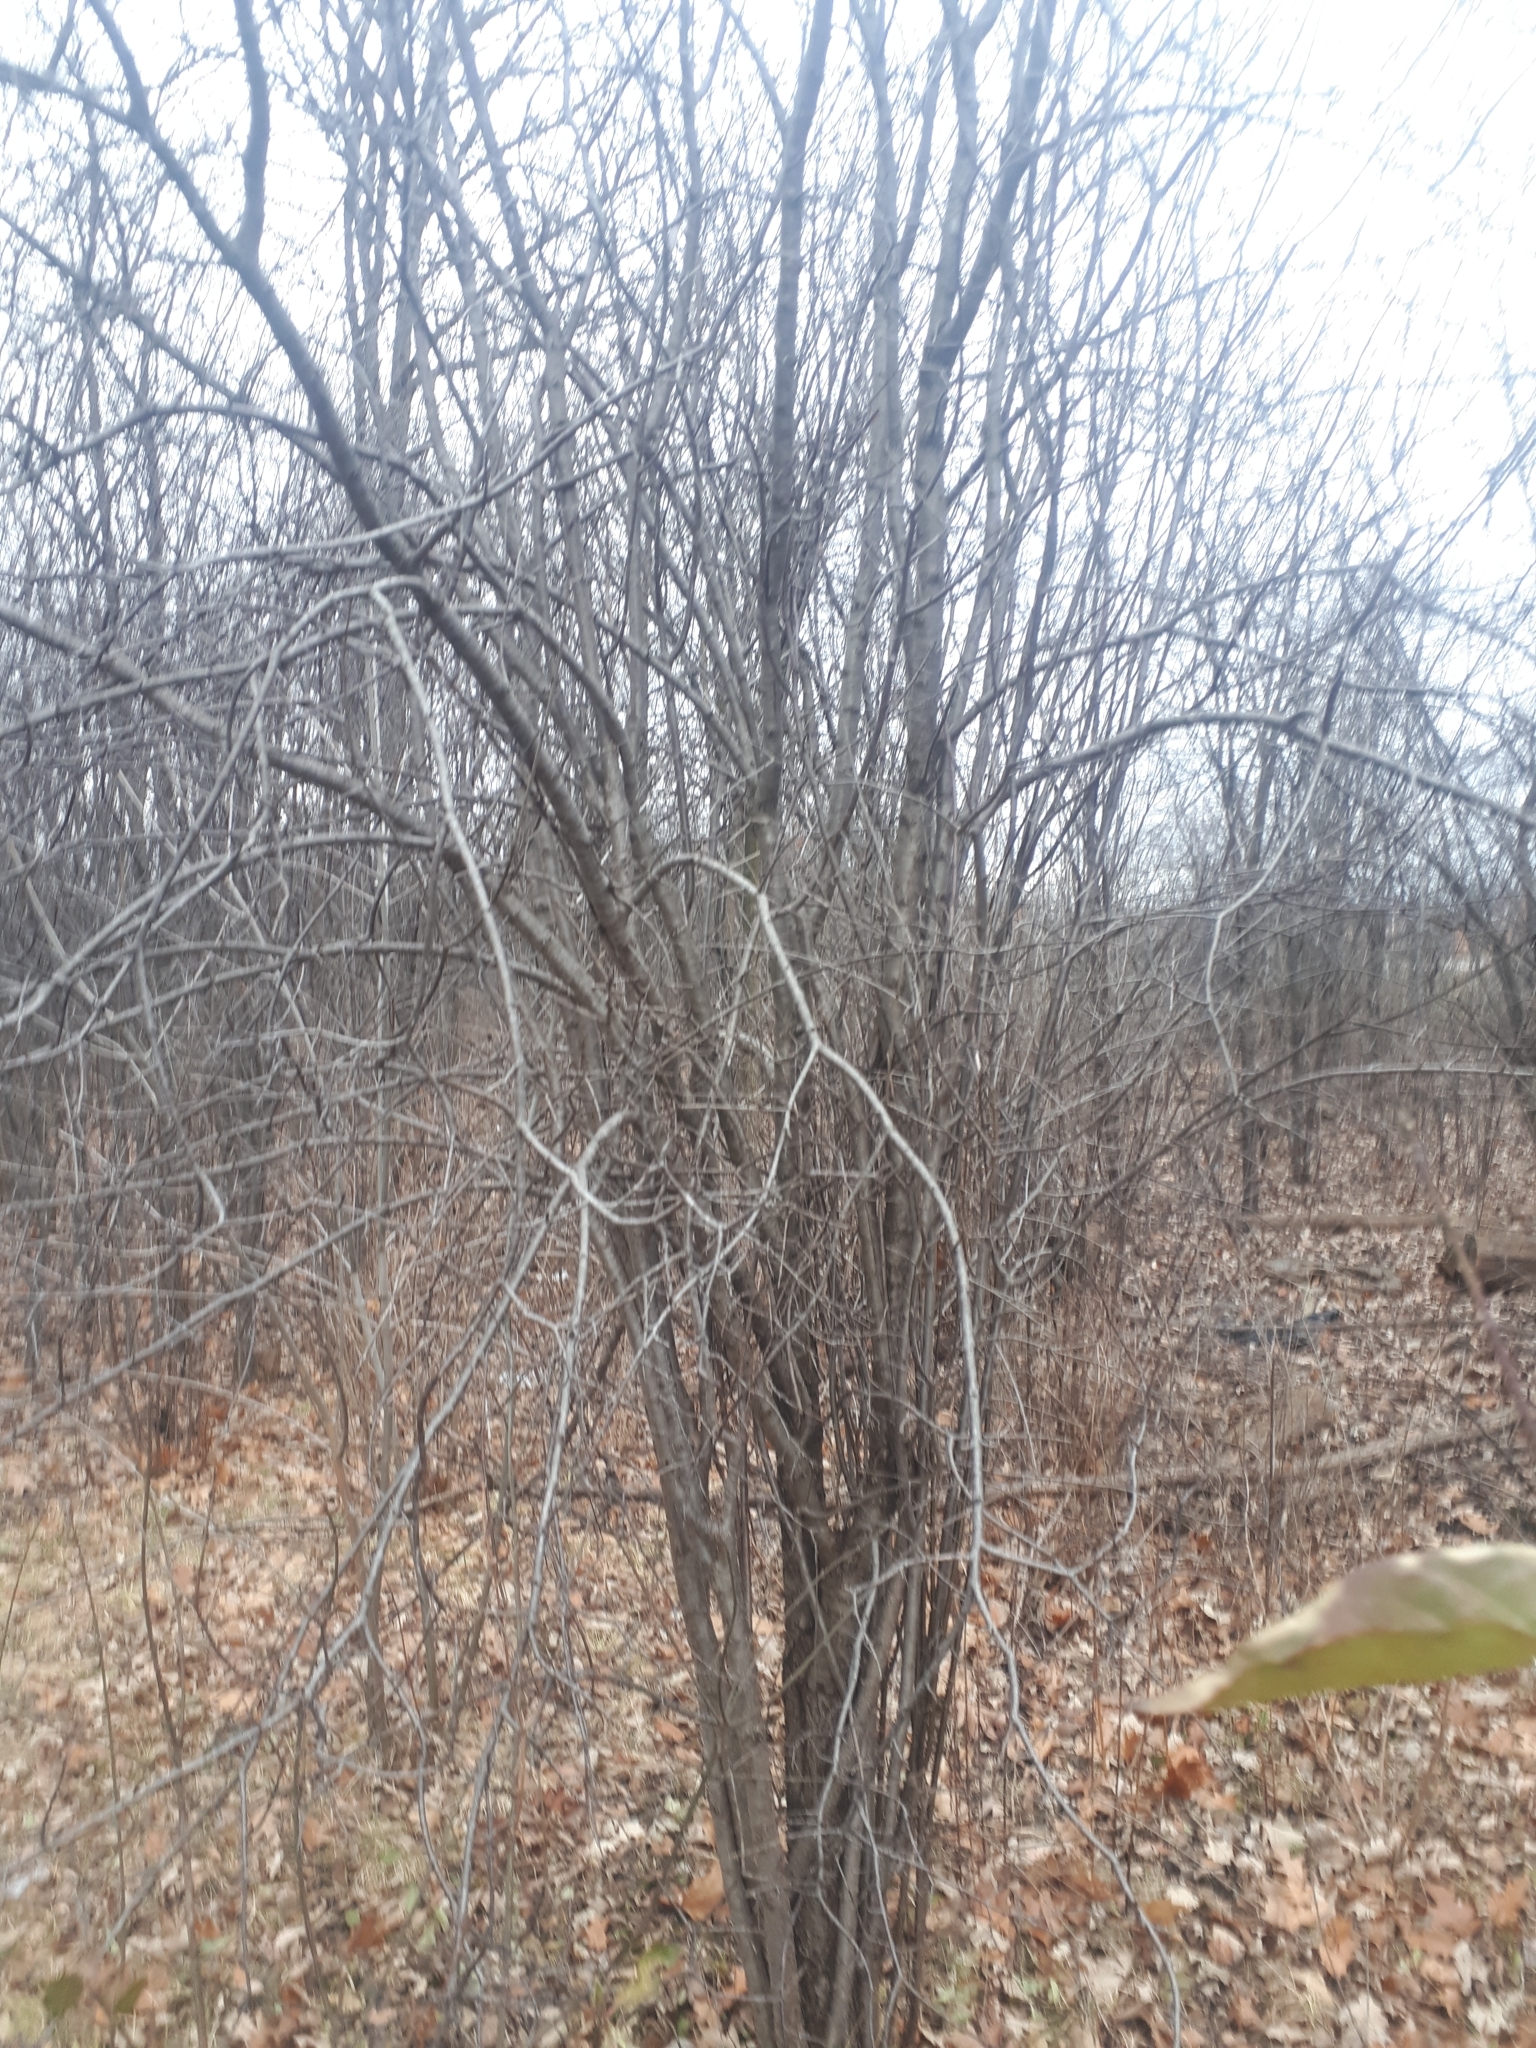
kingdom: Plantae
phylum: Tracheophyta
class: Magnoliopsida
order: Rosales
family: Rhamnaceae
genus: Rhamnus
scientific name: Rhamnus cathartica
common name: Common buckthorn
